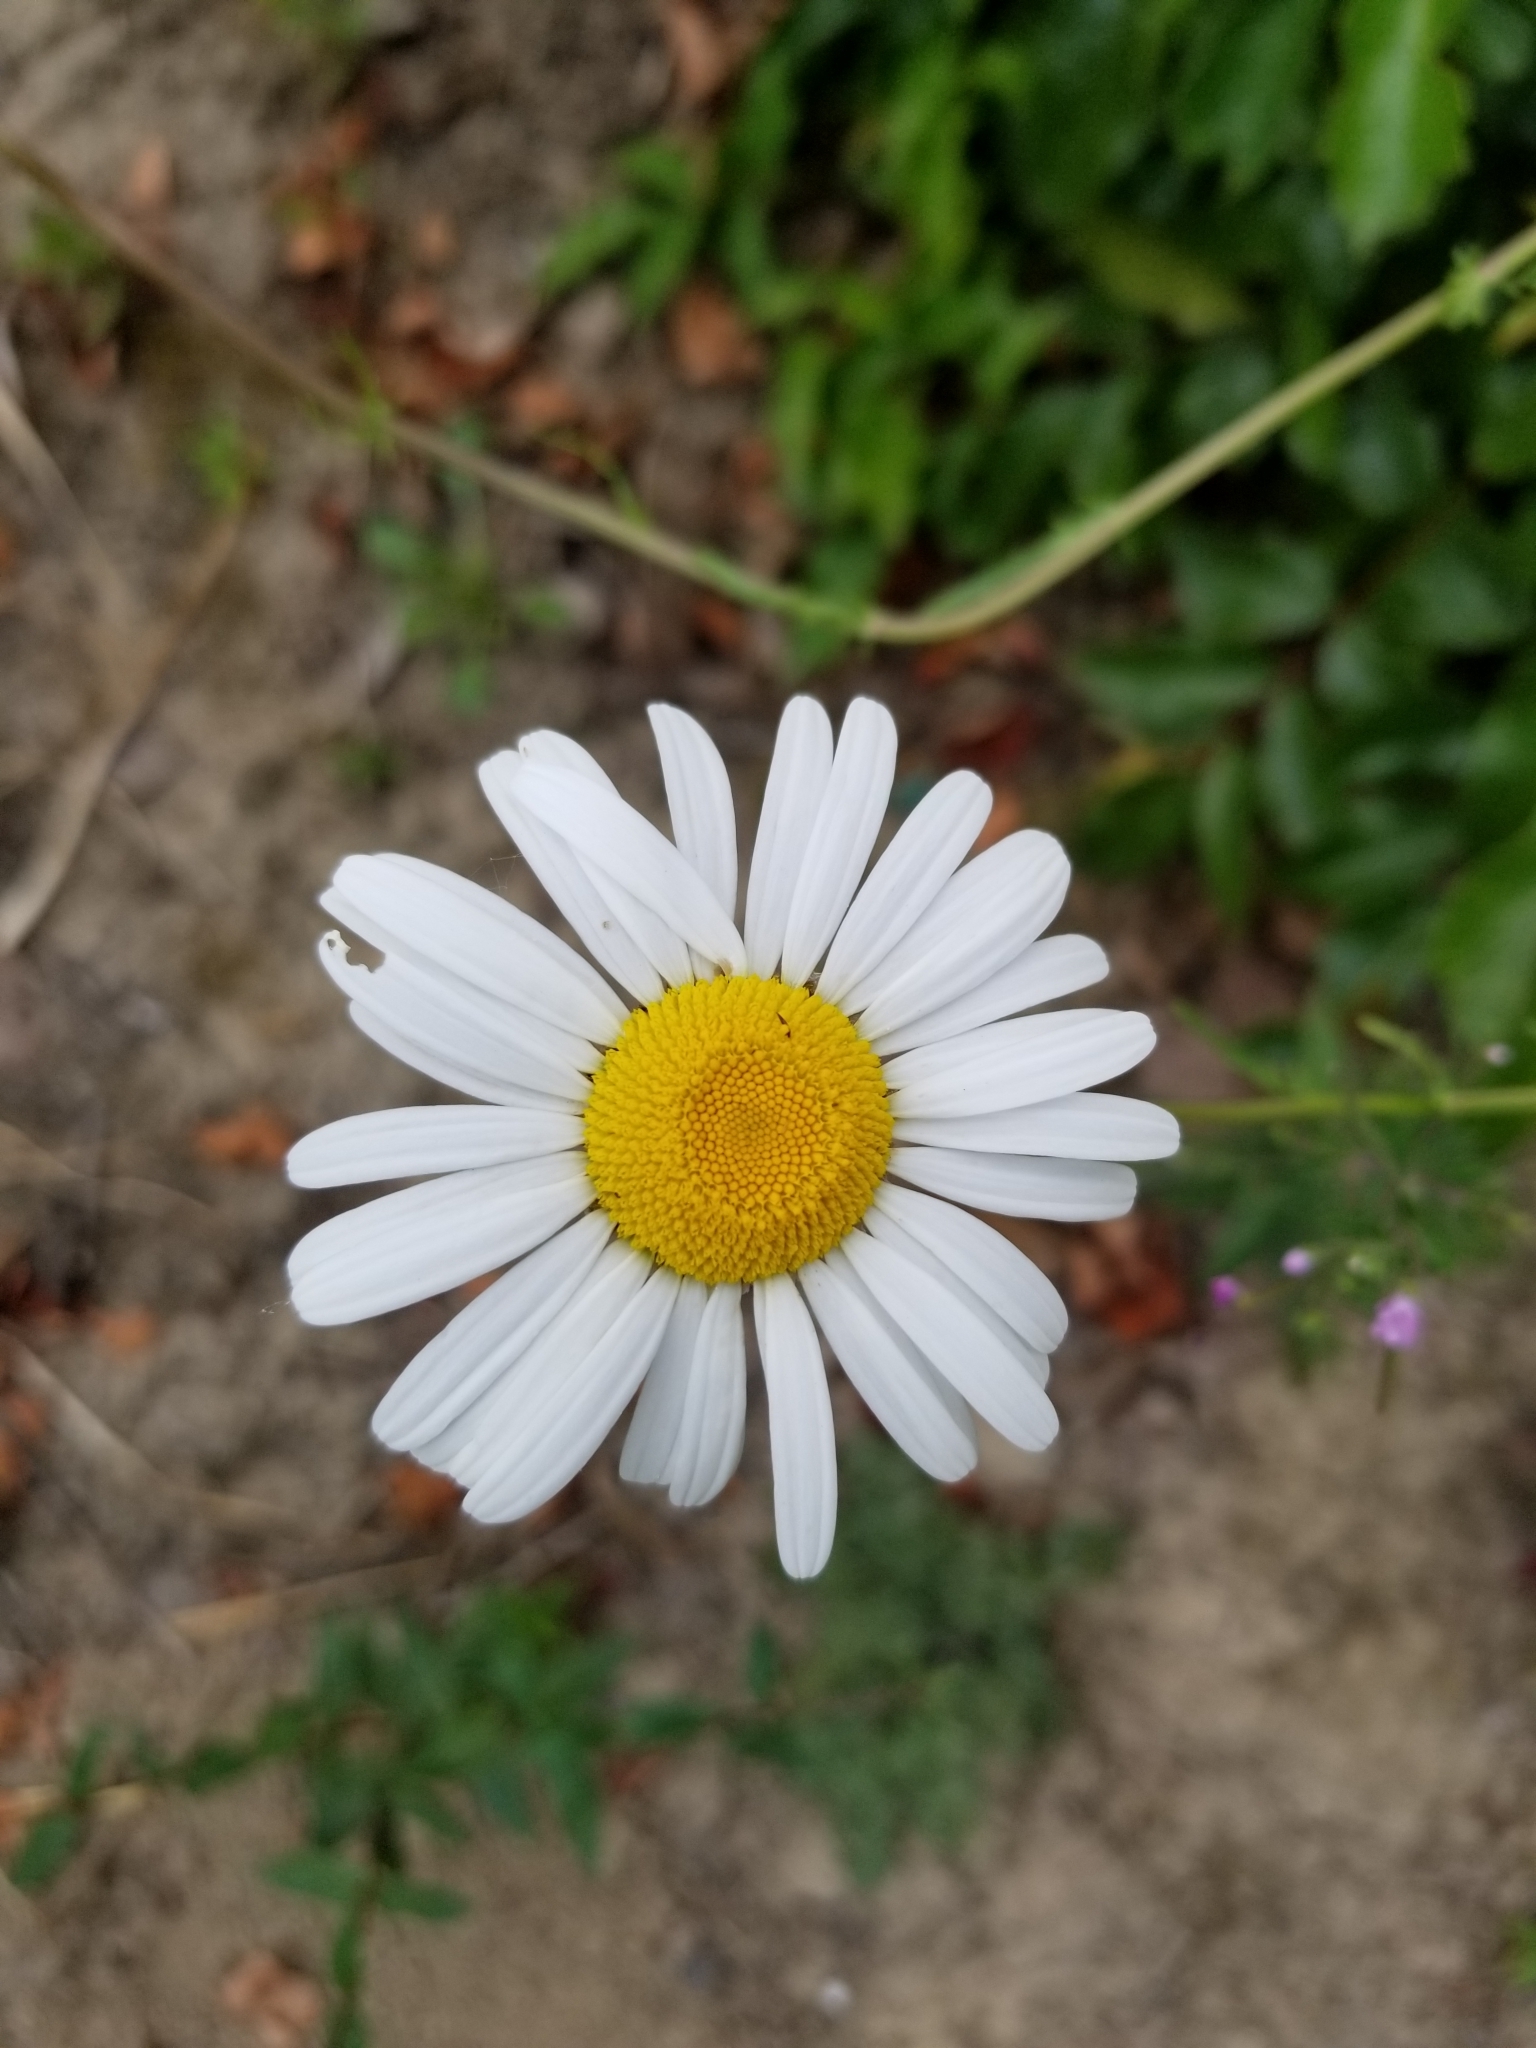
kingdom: Plantae
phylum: Tracheophyta
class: Magnoliopsida
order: Asterales
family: Asteraceae
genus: Leucanthemum
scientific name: Leucanthemum vulgare
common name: Oxeye daisy
